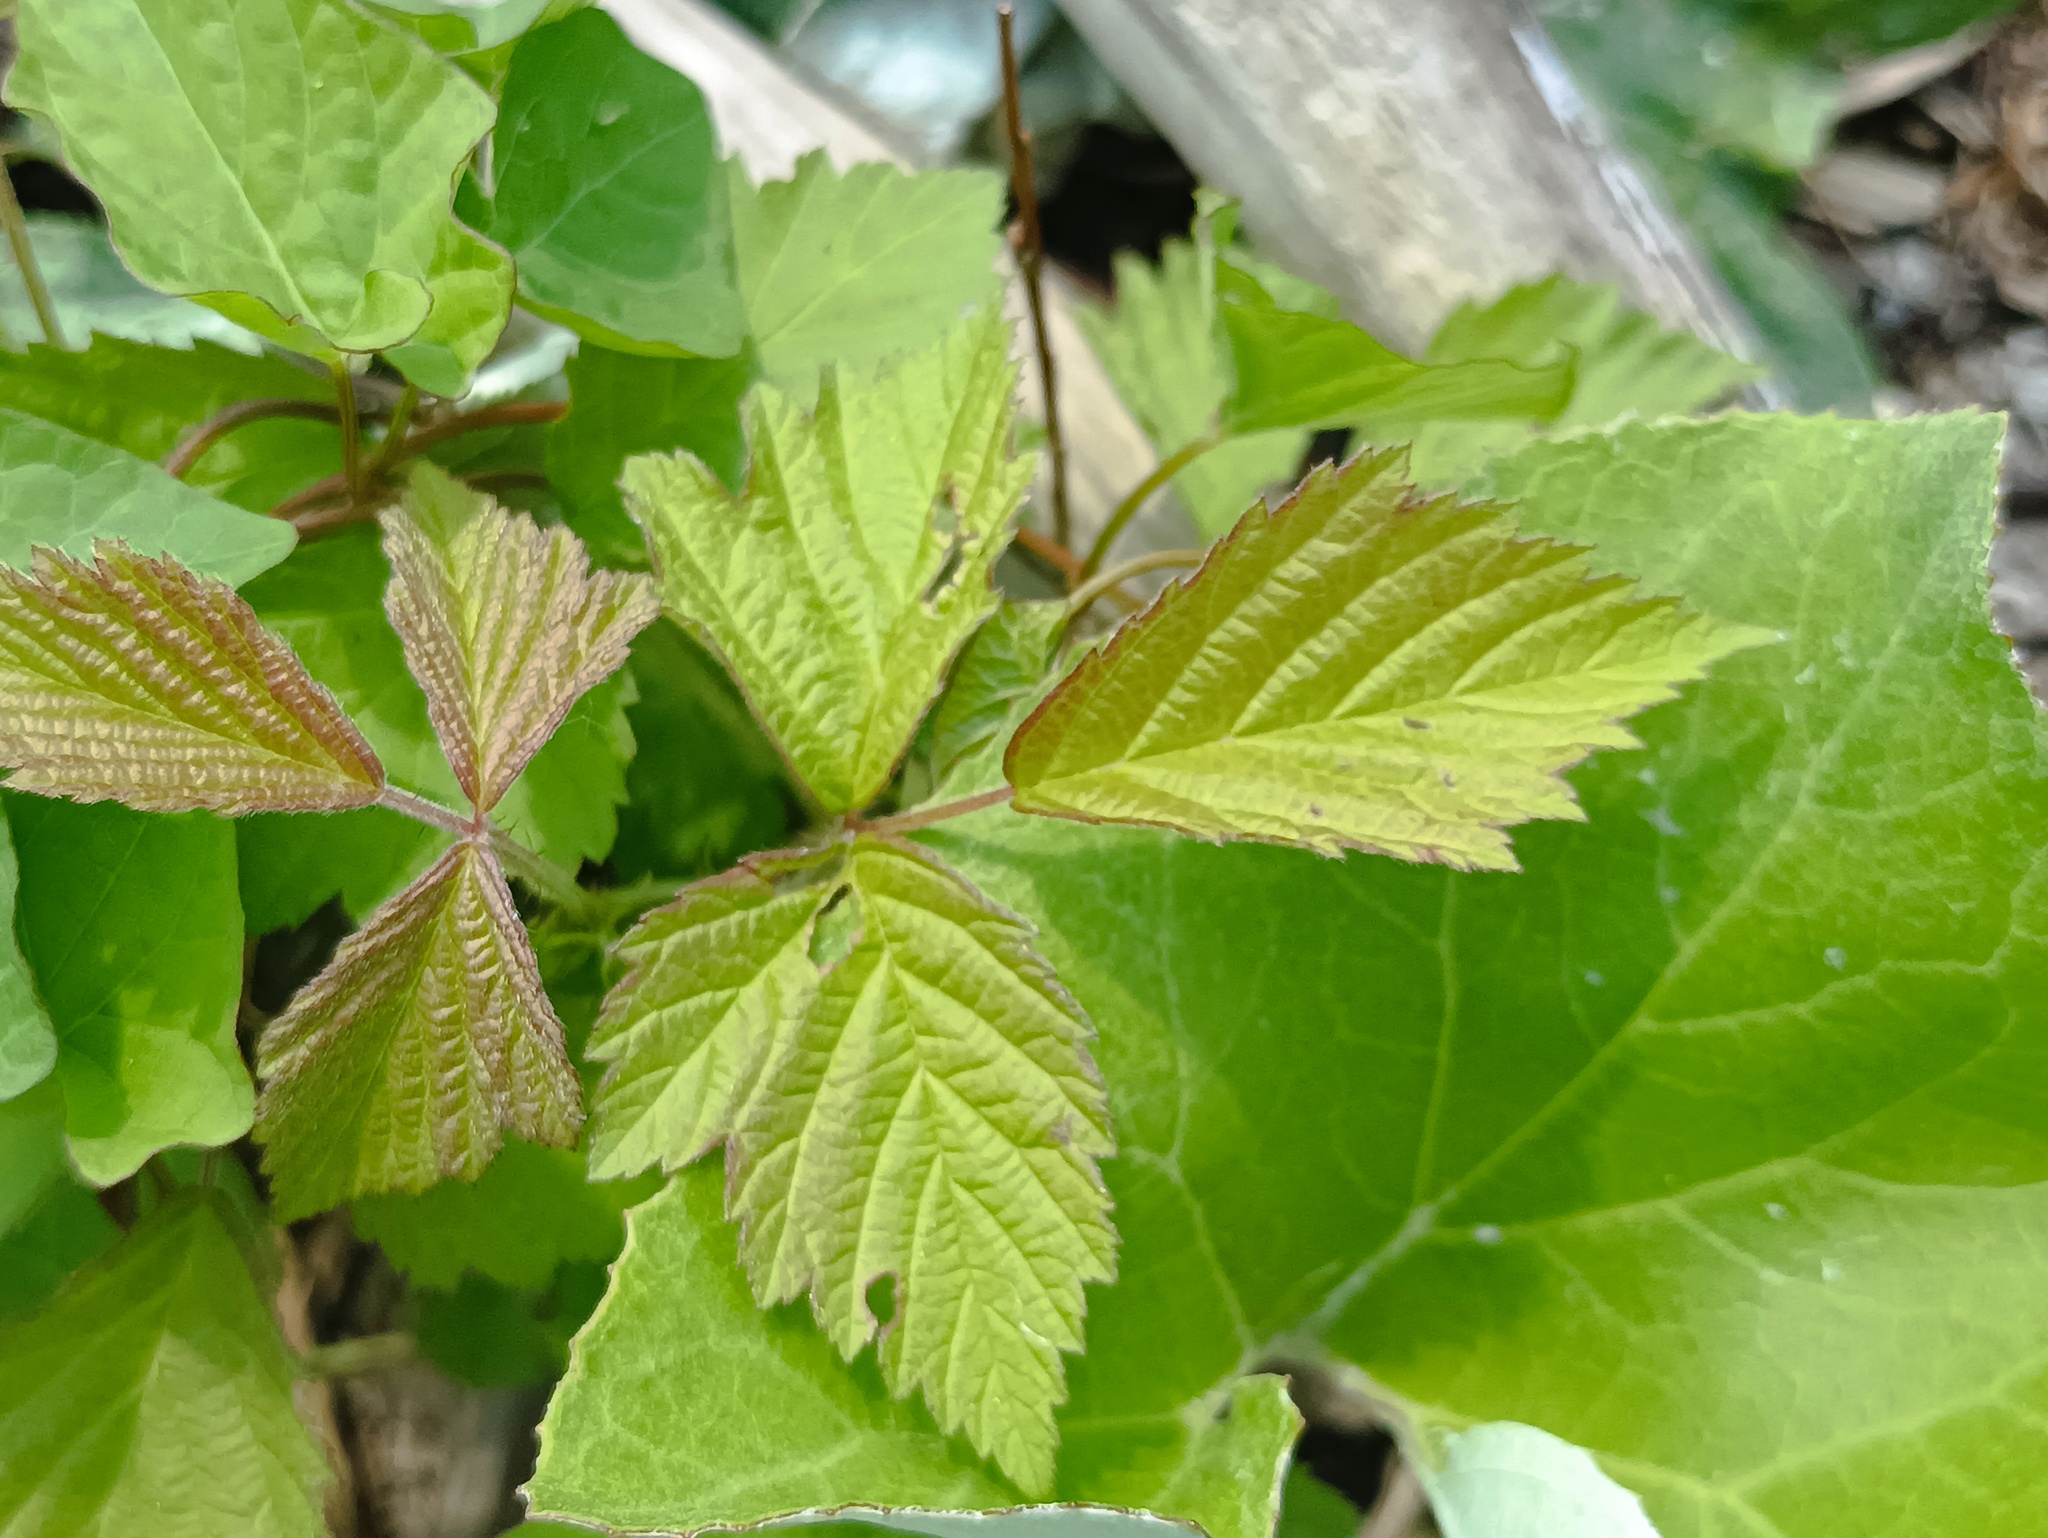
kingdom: Plantae
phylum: Tracheophyta
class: Magnoliopsida
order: Rosales
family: Rosaceae
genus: Rubus
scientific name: Rubus caesius
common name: Dewberry
